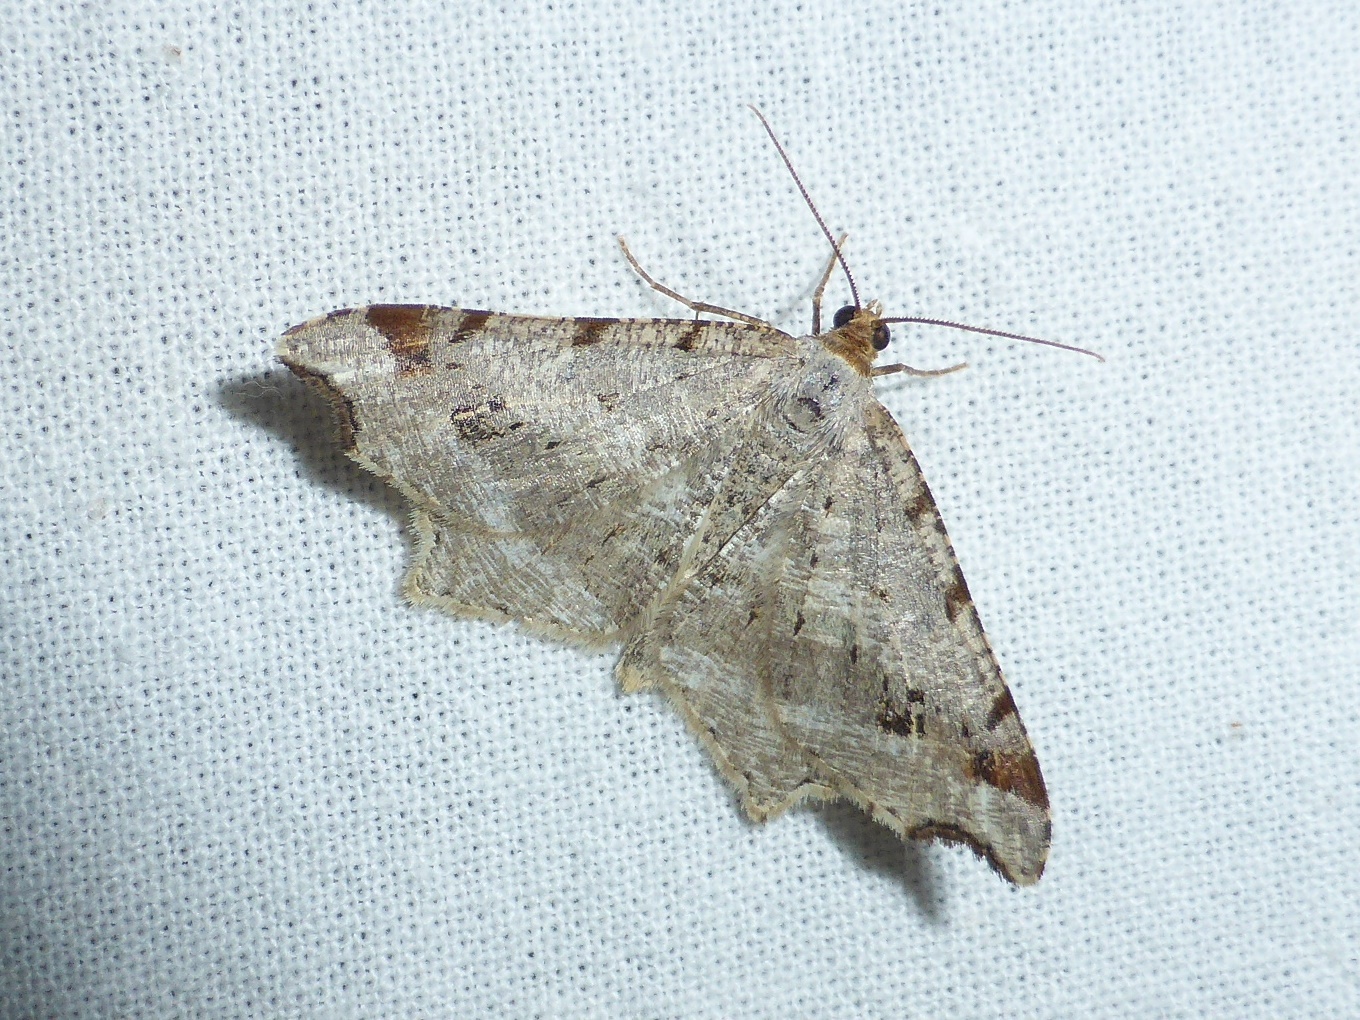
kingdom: Animalia
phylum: Arthropoda
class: Insecta
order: Lepidoptera
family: Geometridae
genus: Macaria
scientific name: Macaria alternata
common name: Sharp-angled peacock
